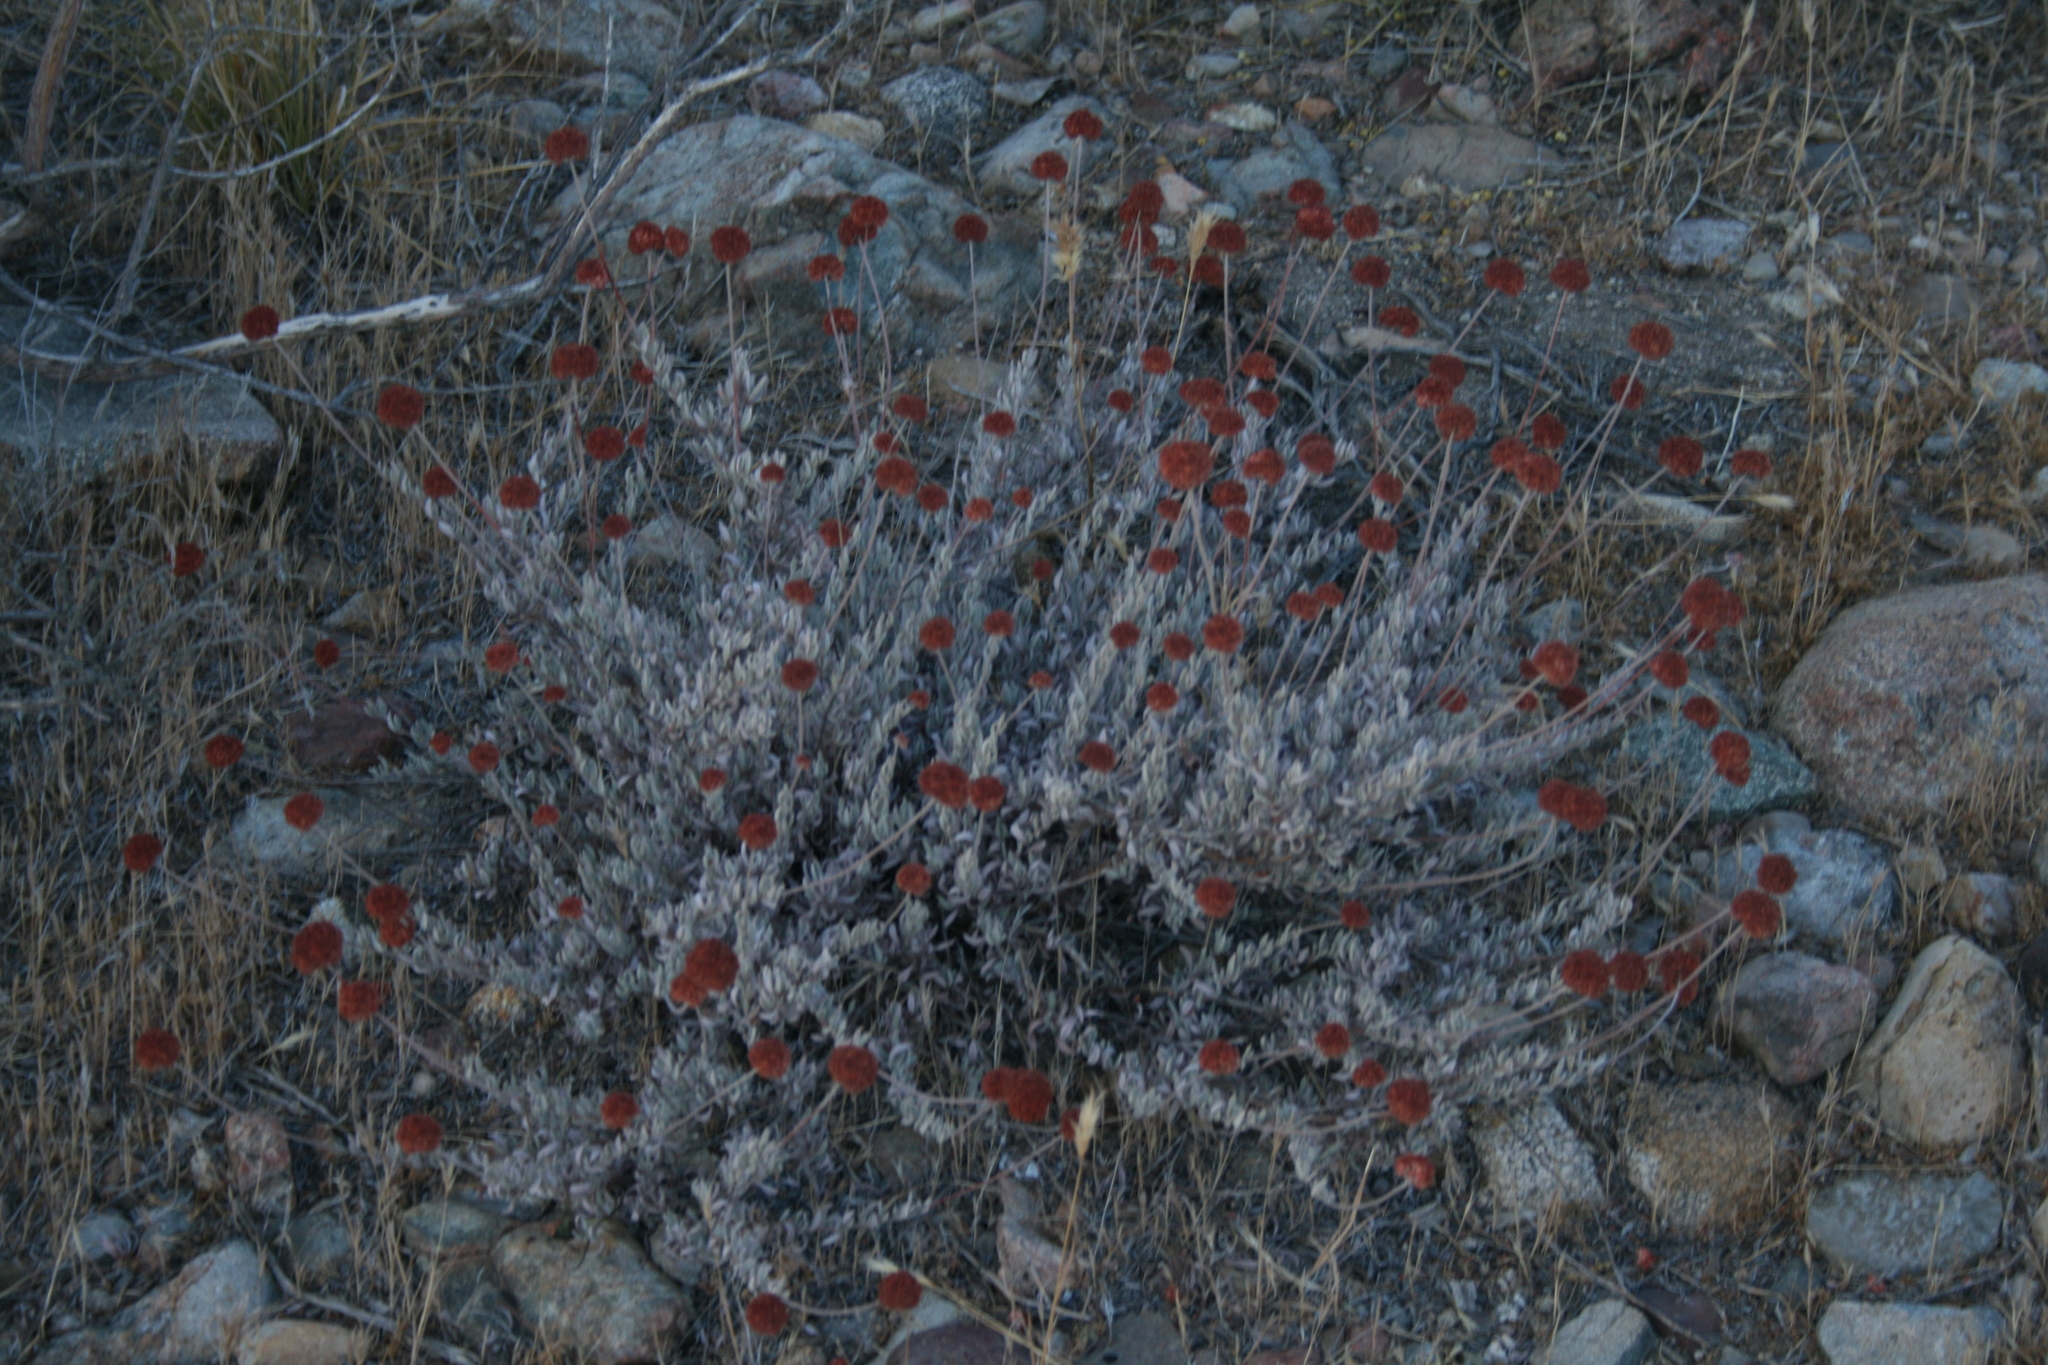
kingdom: Plantae
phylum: Tracheophyta
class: Magnoliopsida
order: Caryophyllales
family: Polygonaceae
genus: Eriogonum
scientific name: Eriogonum fasciculatum
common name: California wild buckwheat
